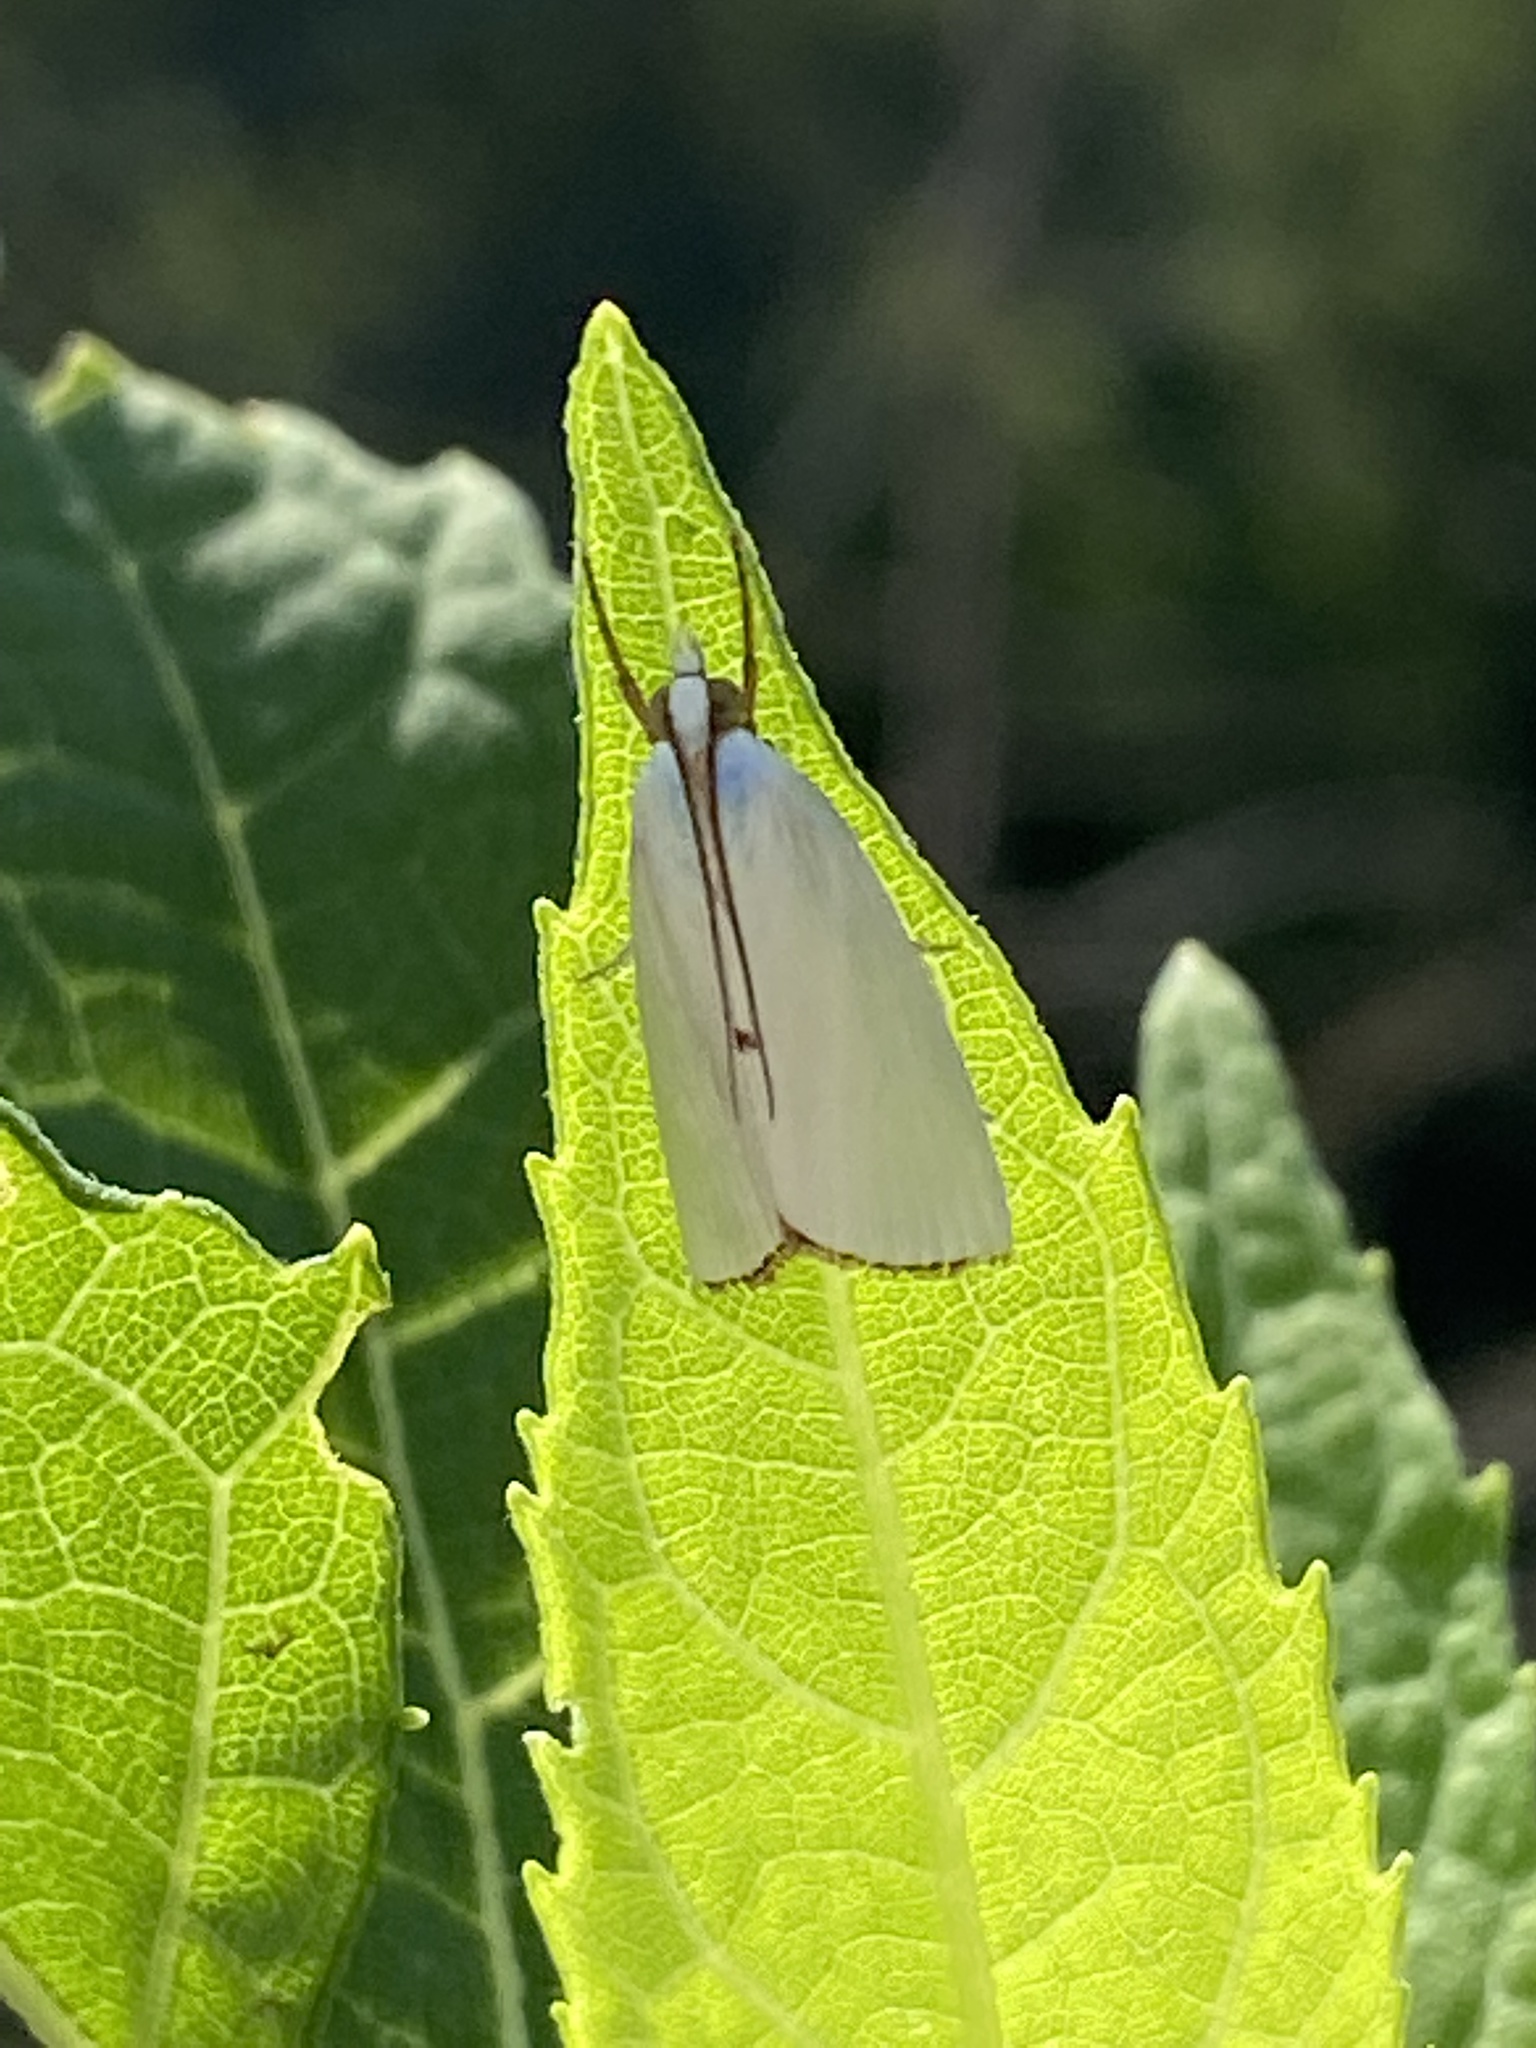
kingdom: Animalia
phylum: Arthropoda
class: Insecta
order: Lepidoptera
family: Crambidae
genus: Argyria
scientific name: Argyria nivalis
